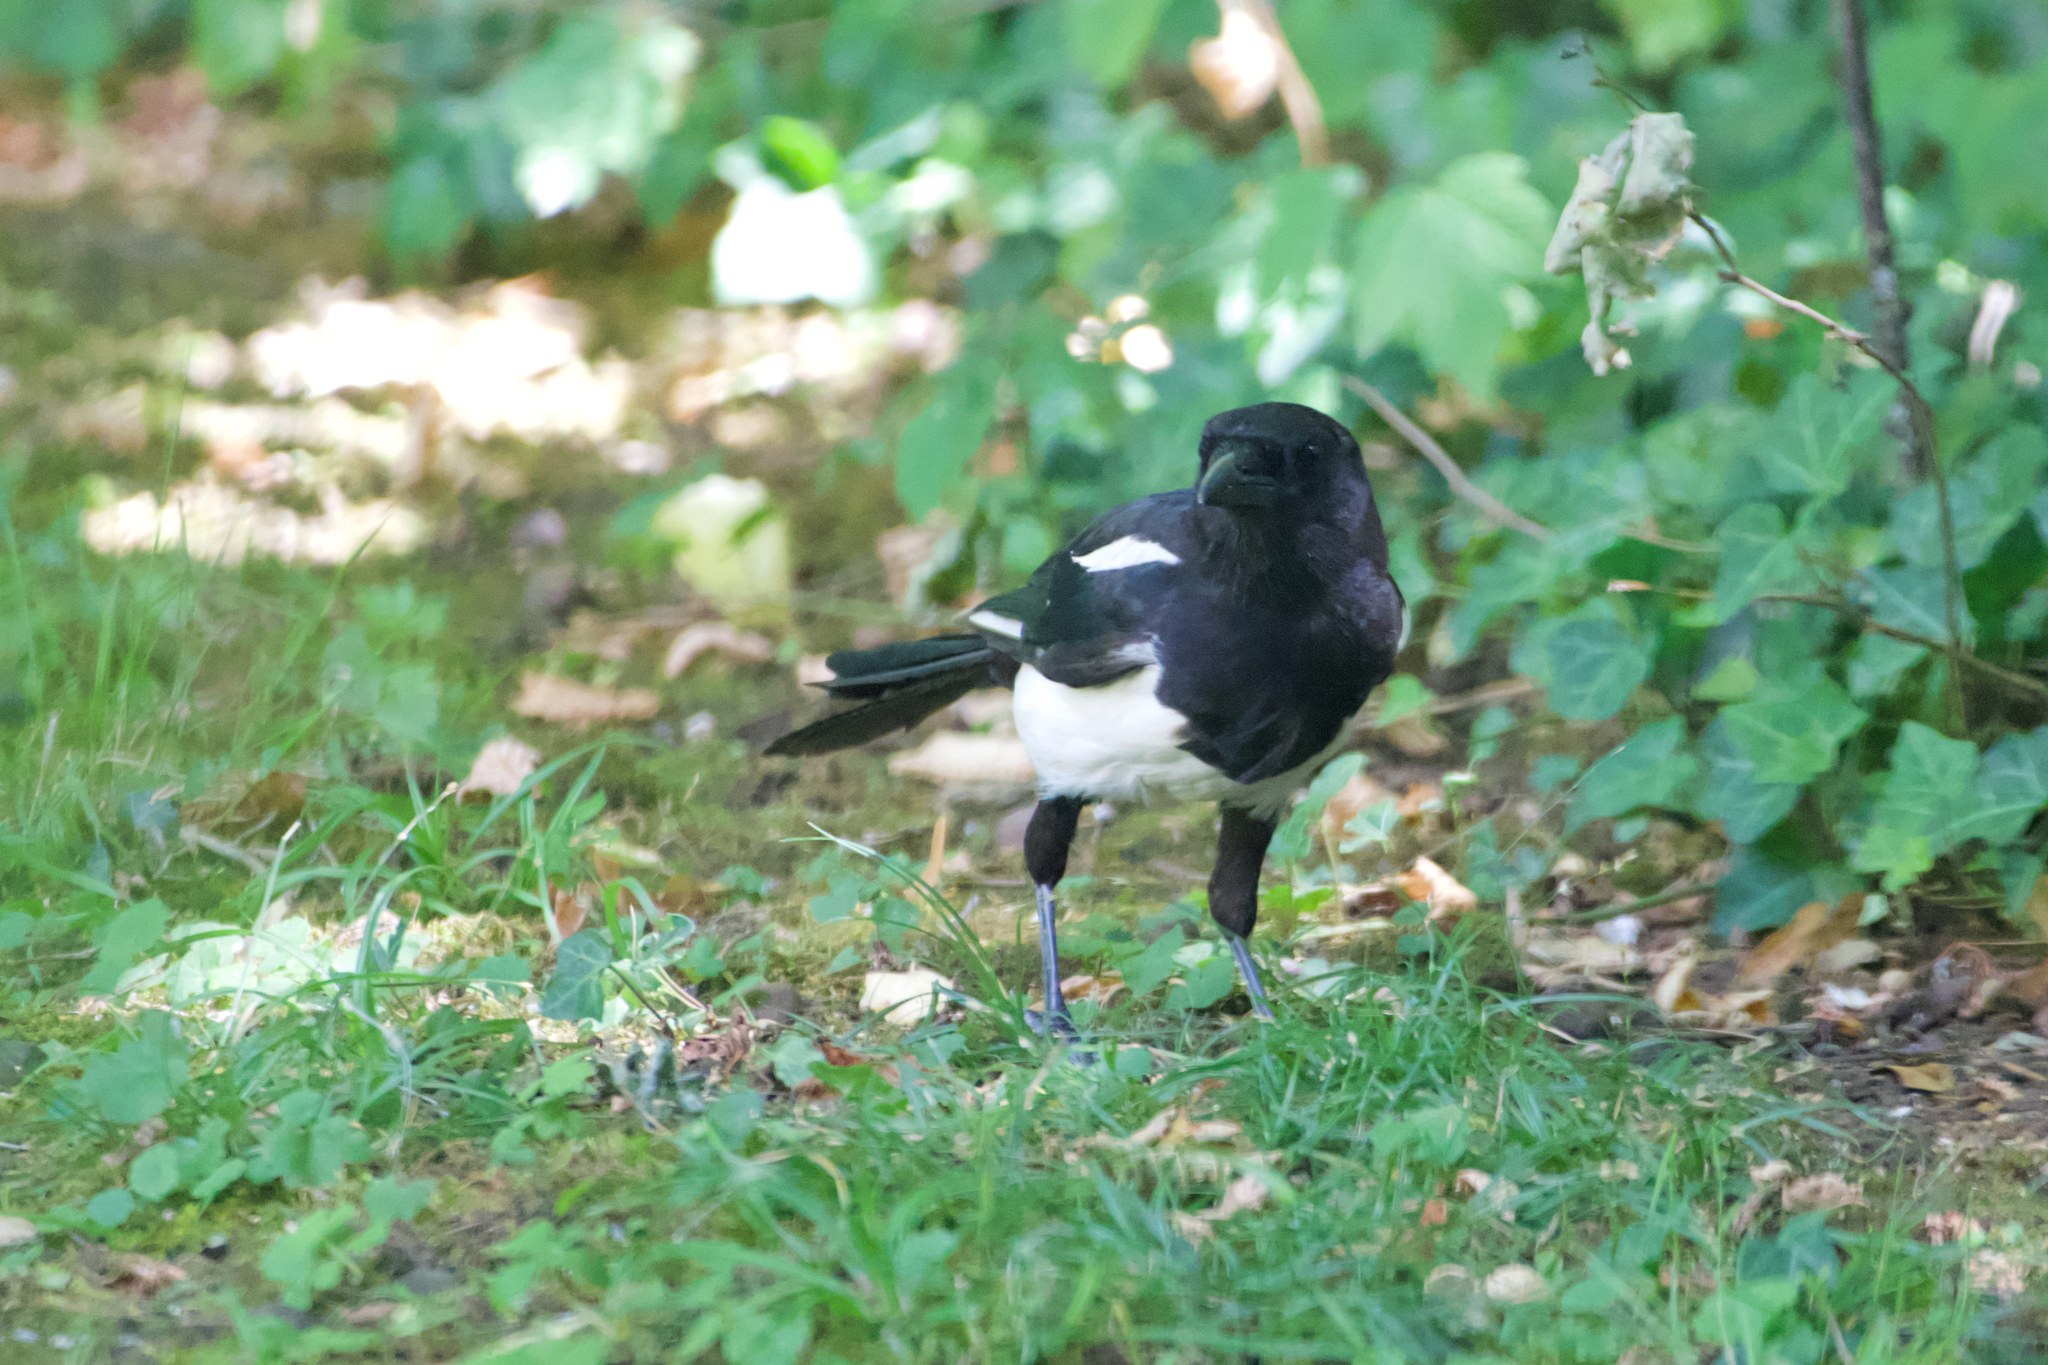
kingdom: Animalia
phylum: Chordata
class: Aves
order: Passeriformes
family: Corvidae
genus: Pica
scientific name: Pica pica
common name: Eurasian magpie
